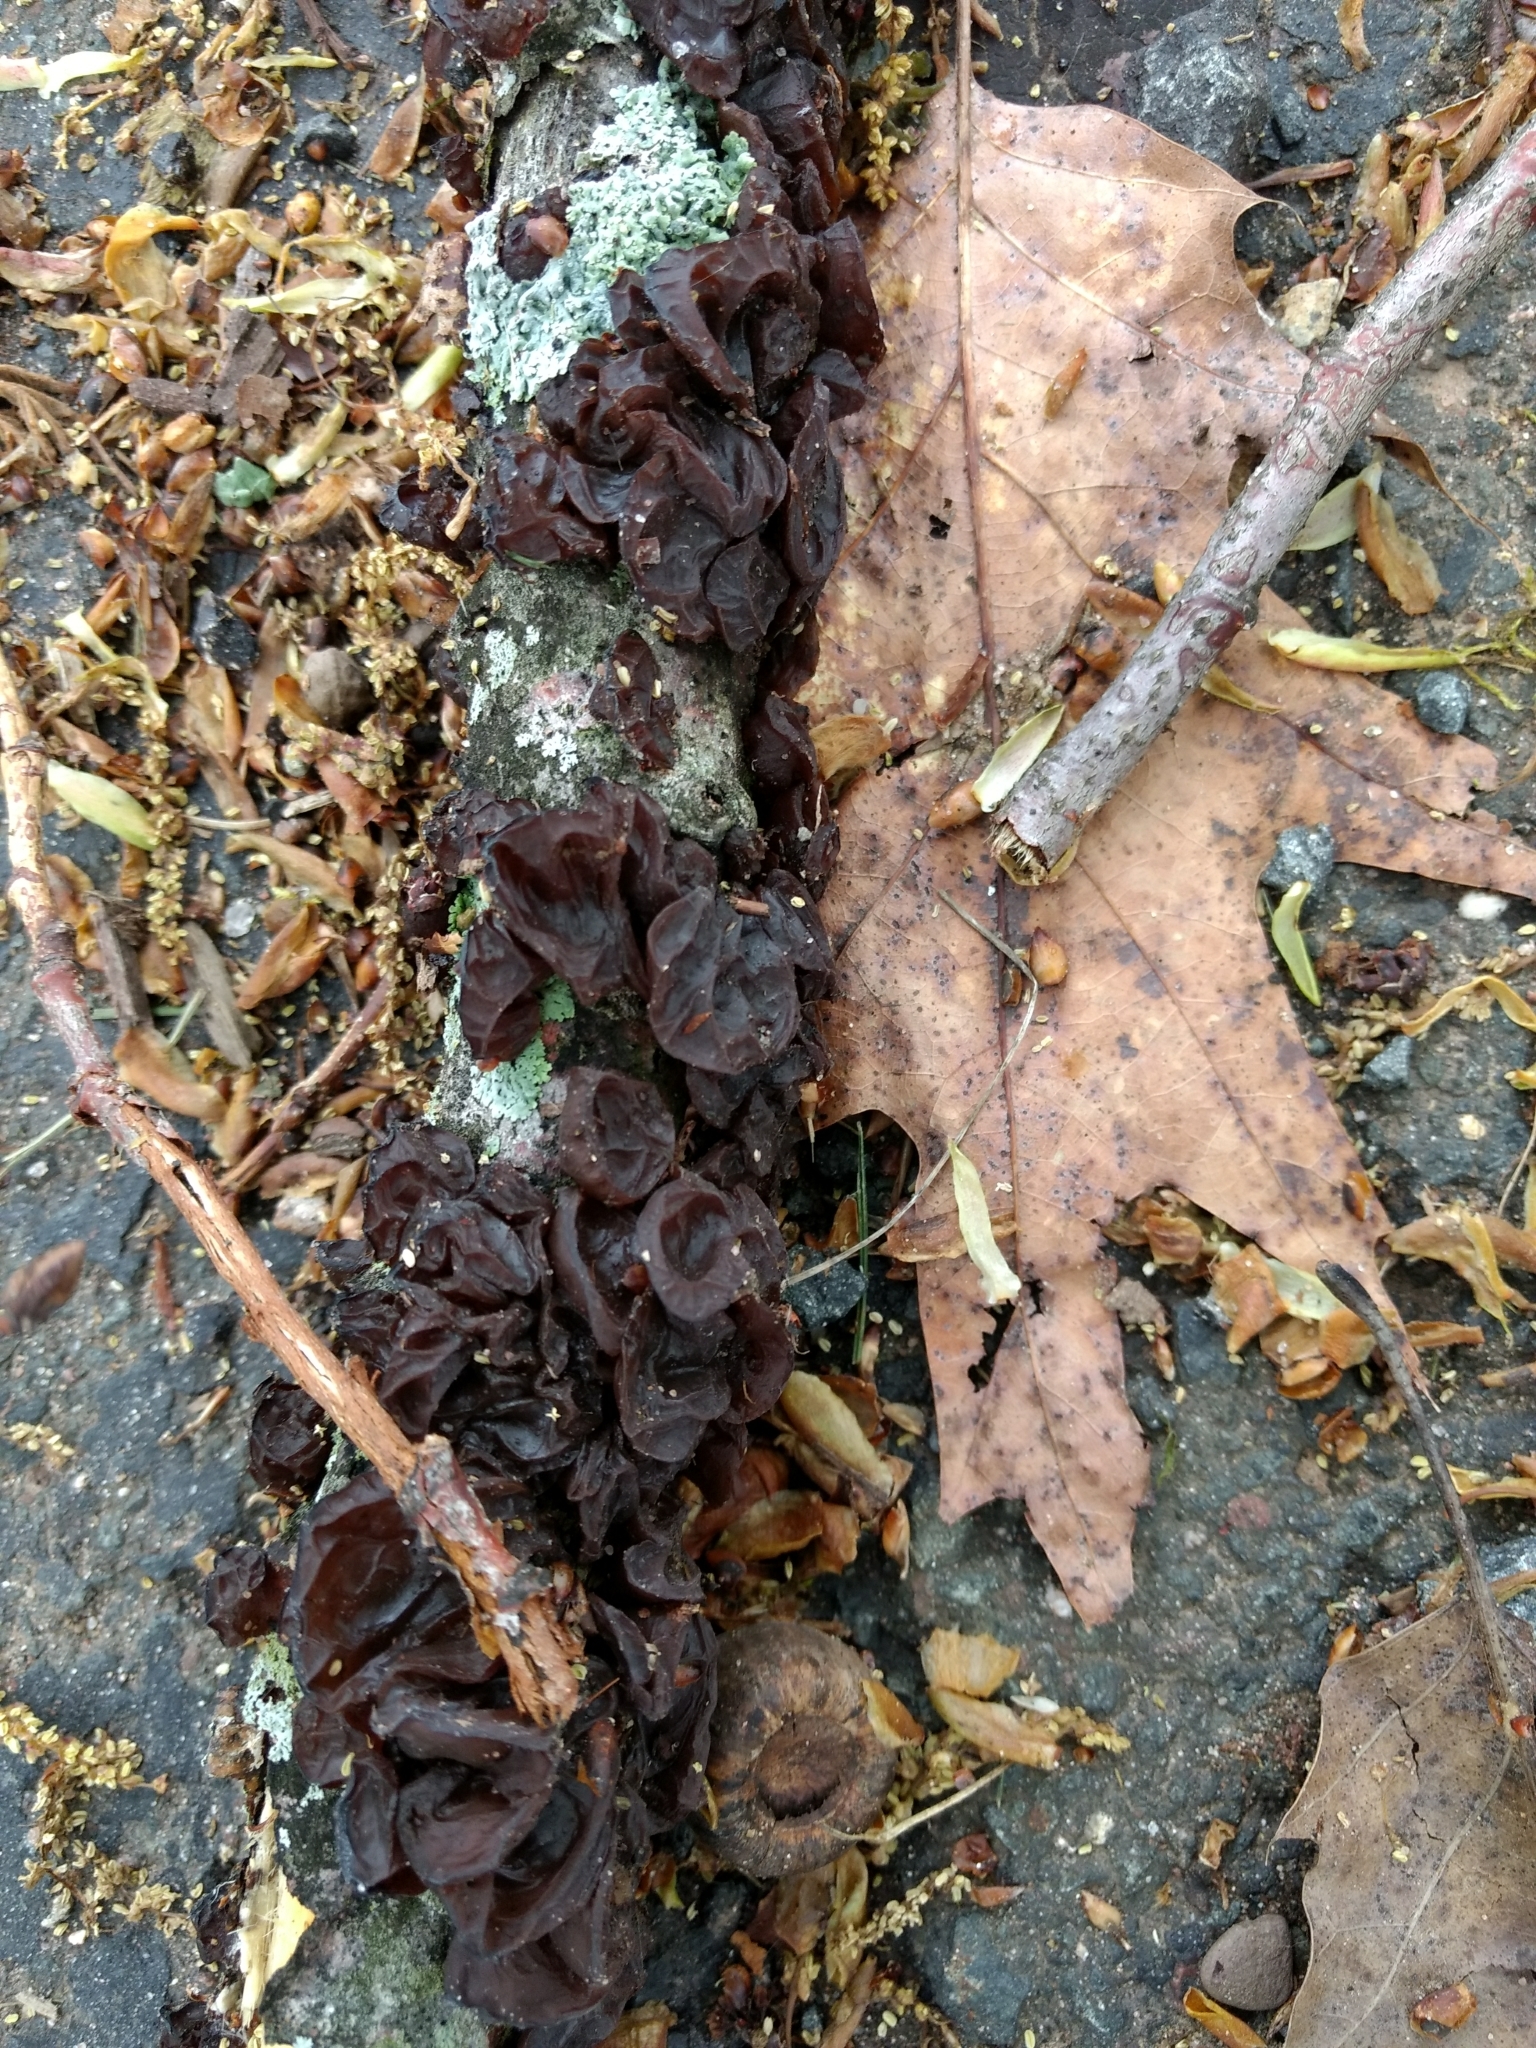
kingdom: Fungi
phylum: Basidiomycota
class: Agaricomycetes
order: Auriculariales
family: Auriculariaceae
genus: Exidia
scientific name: Exidia
